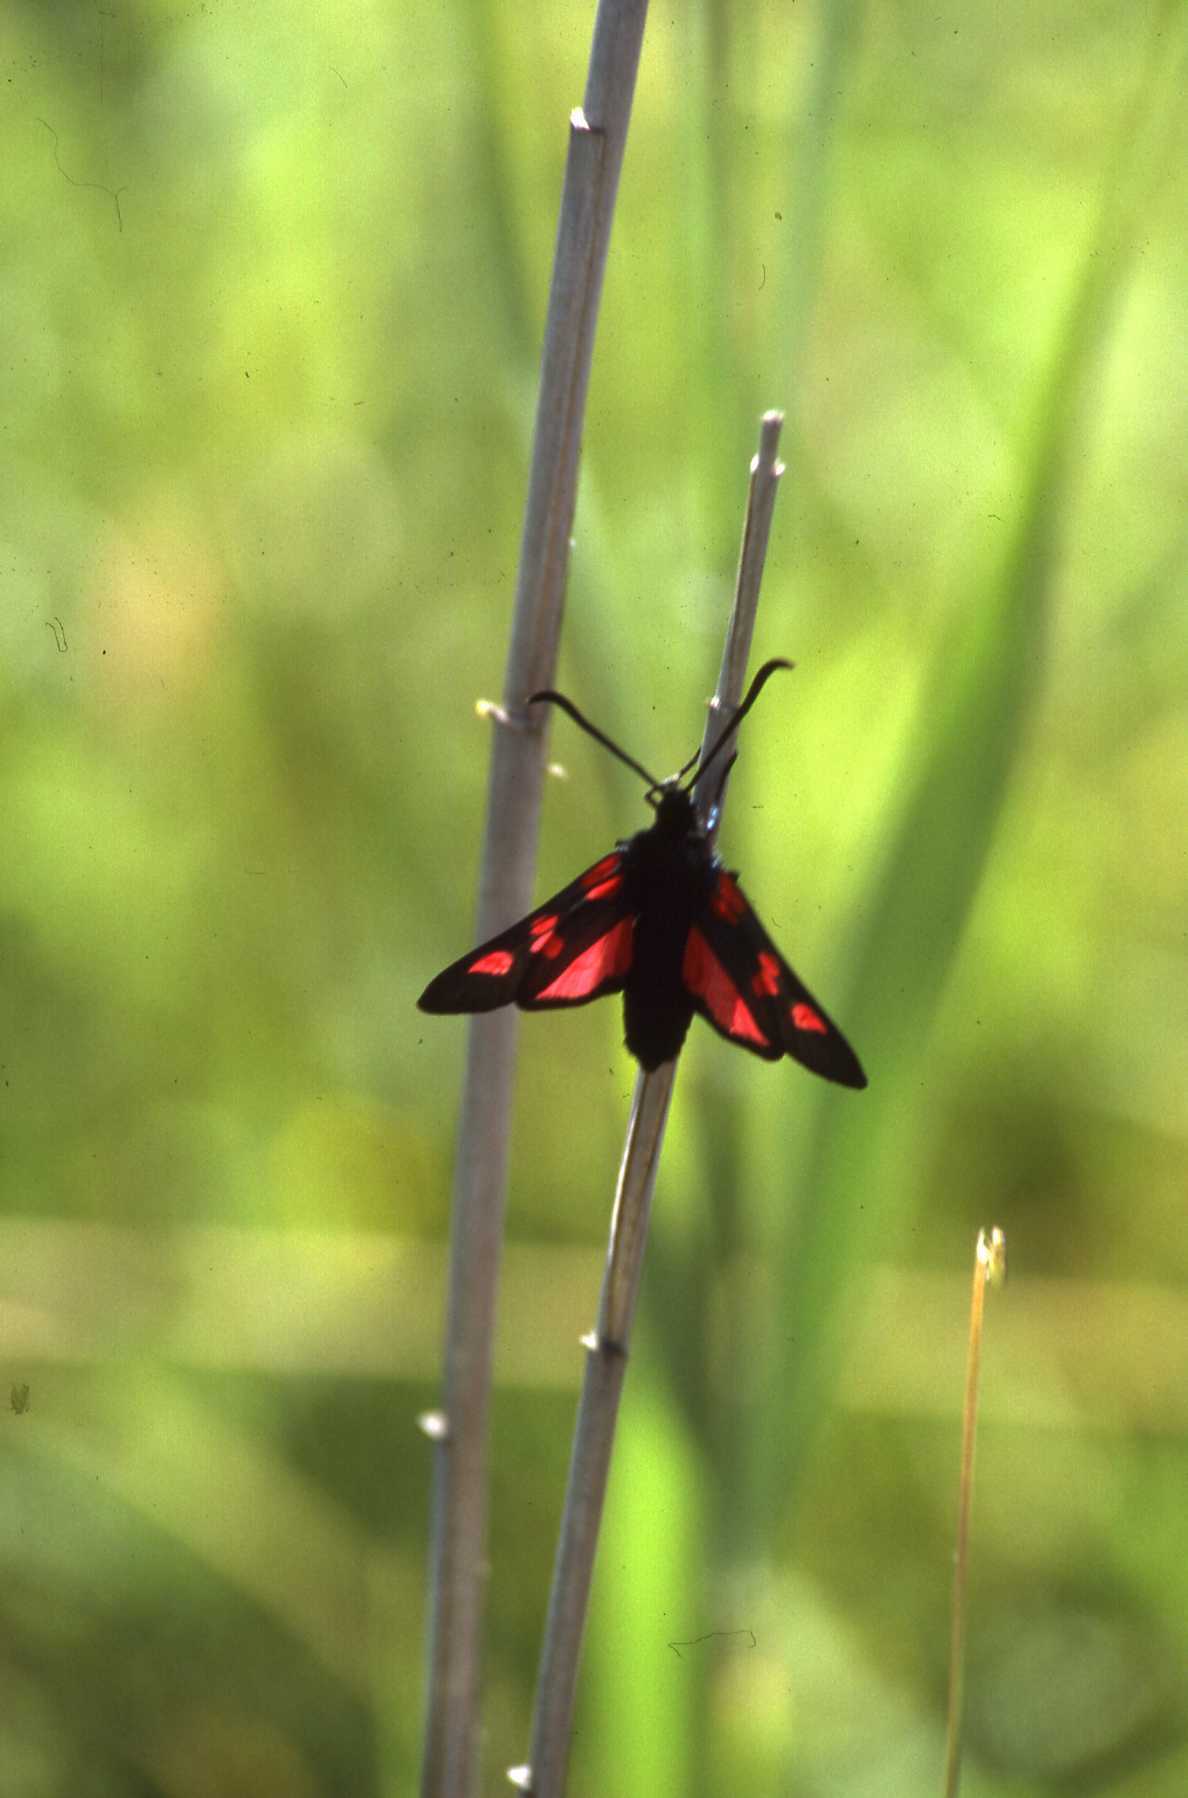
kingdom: Animalia
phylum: Arthropoda
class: Insecta
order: Lepidoptera
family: Zygaenidae
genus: Zygaena
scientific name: Zygaena trifolii
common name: Five-spot burnet
